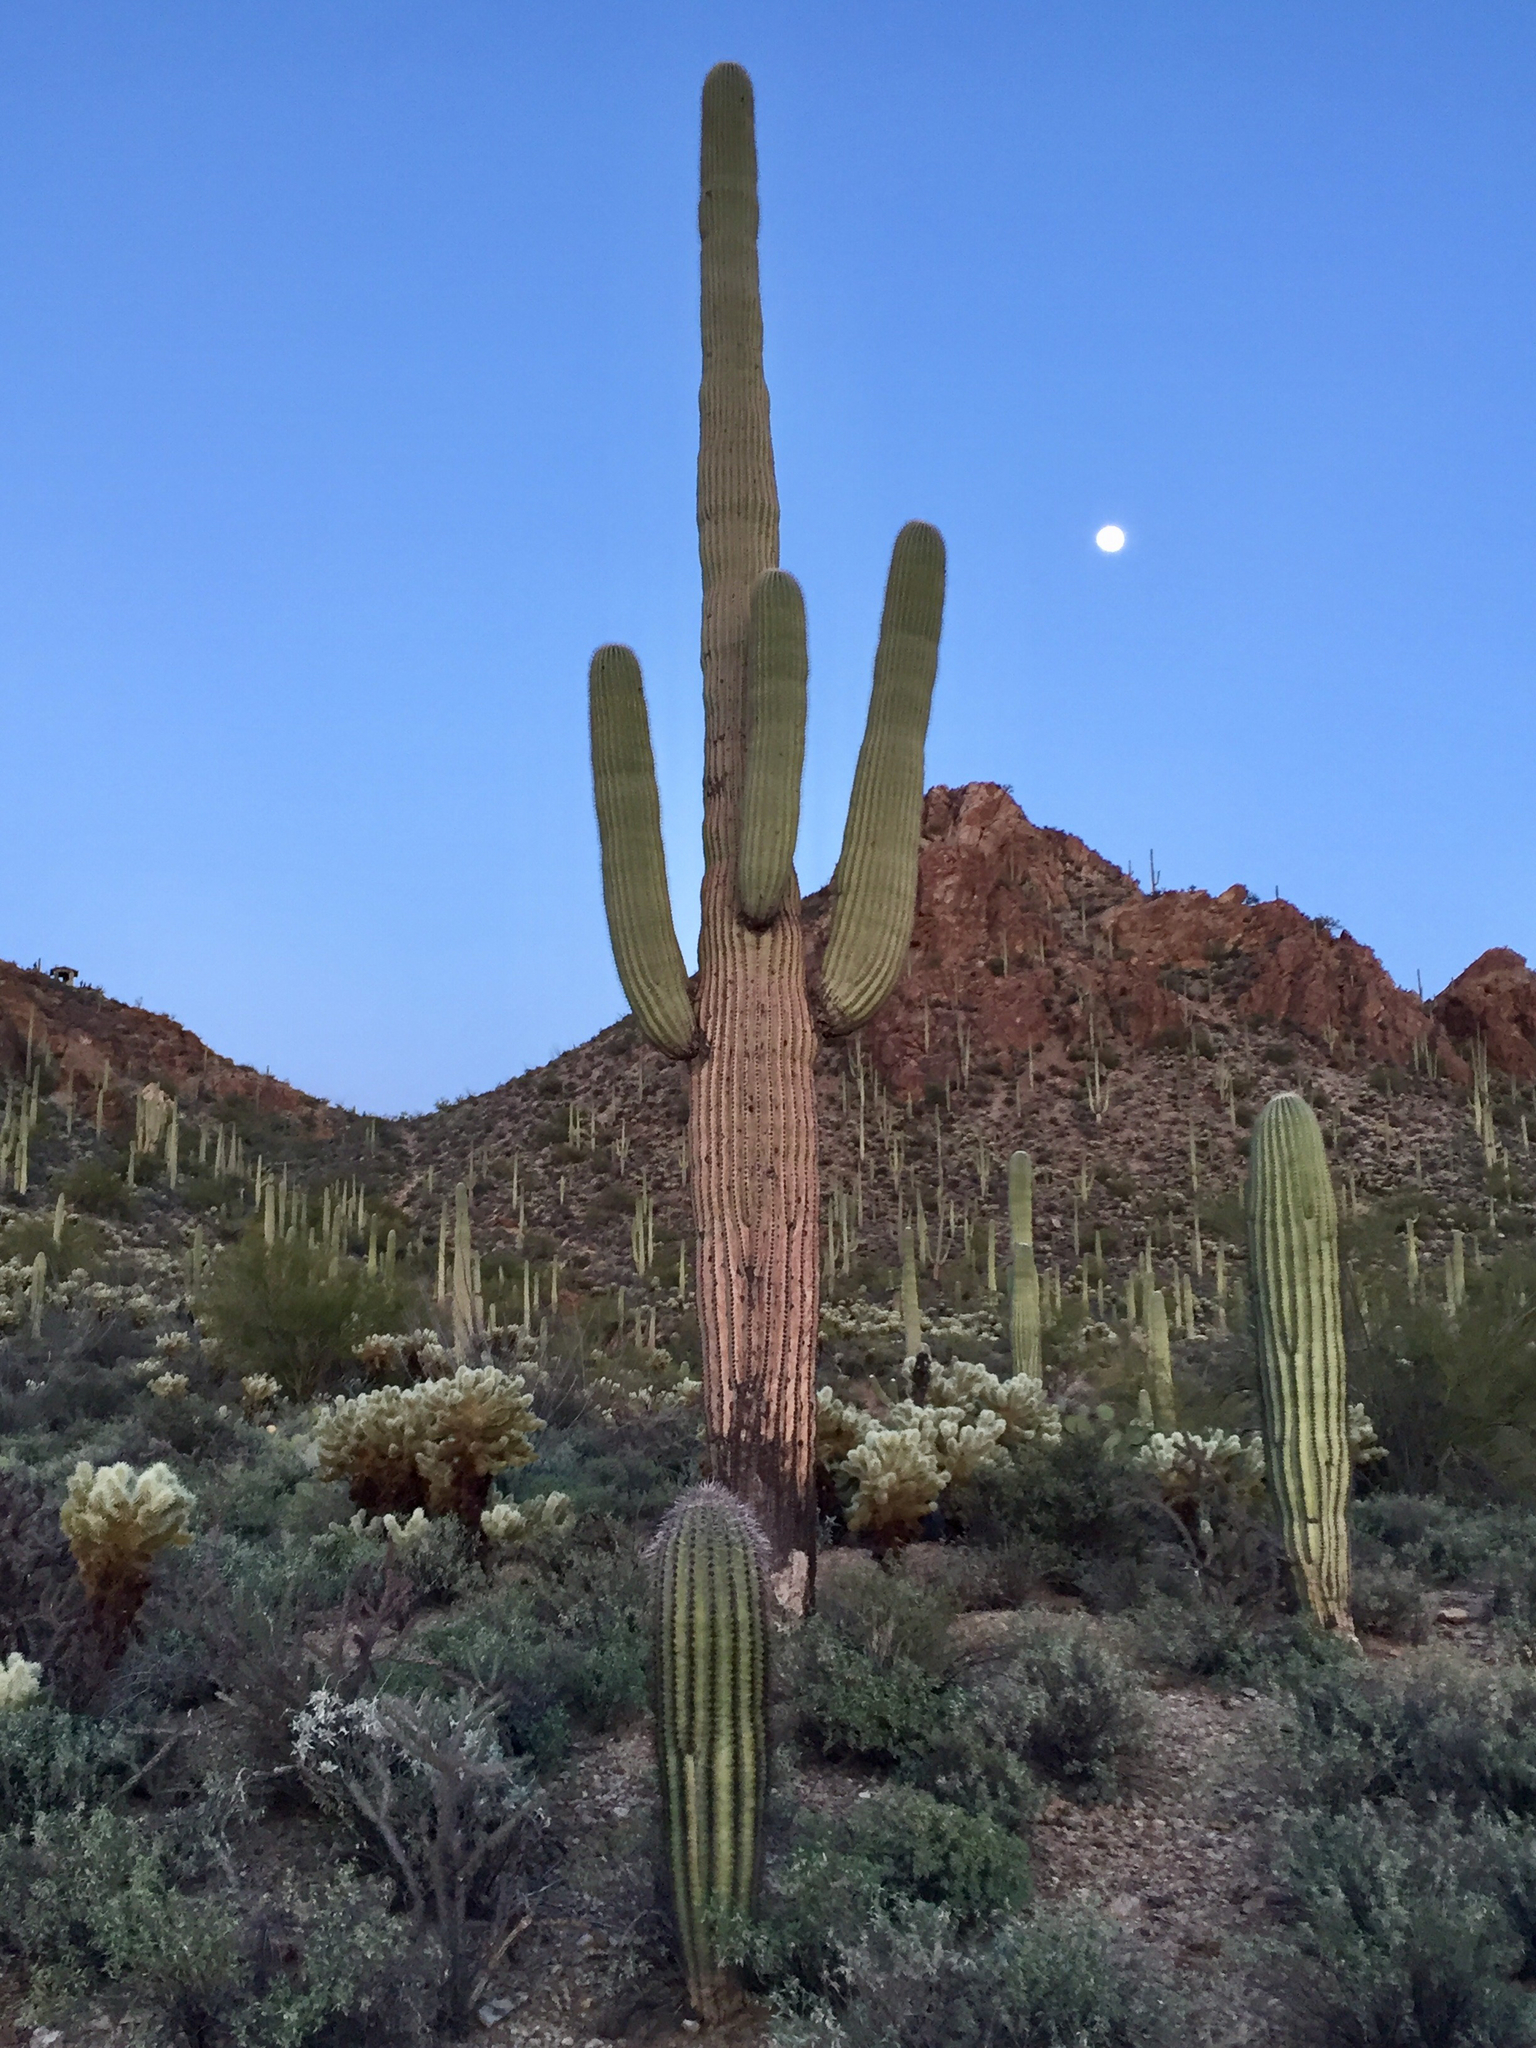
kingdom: Plantae
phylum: Tracheophyta
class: Magnoliopsida
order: Caryophyllales
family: Cactaceae
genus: Carnegiea
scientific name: Carnegiea gigantea
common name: Saguaro
